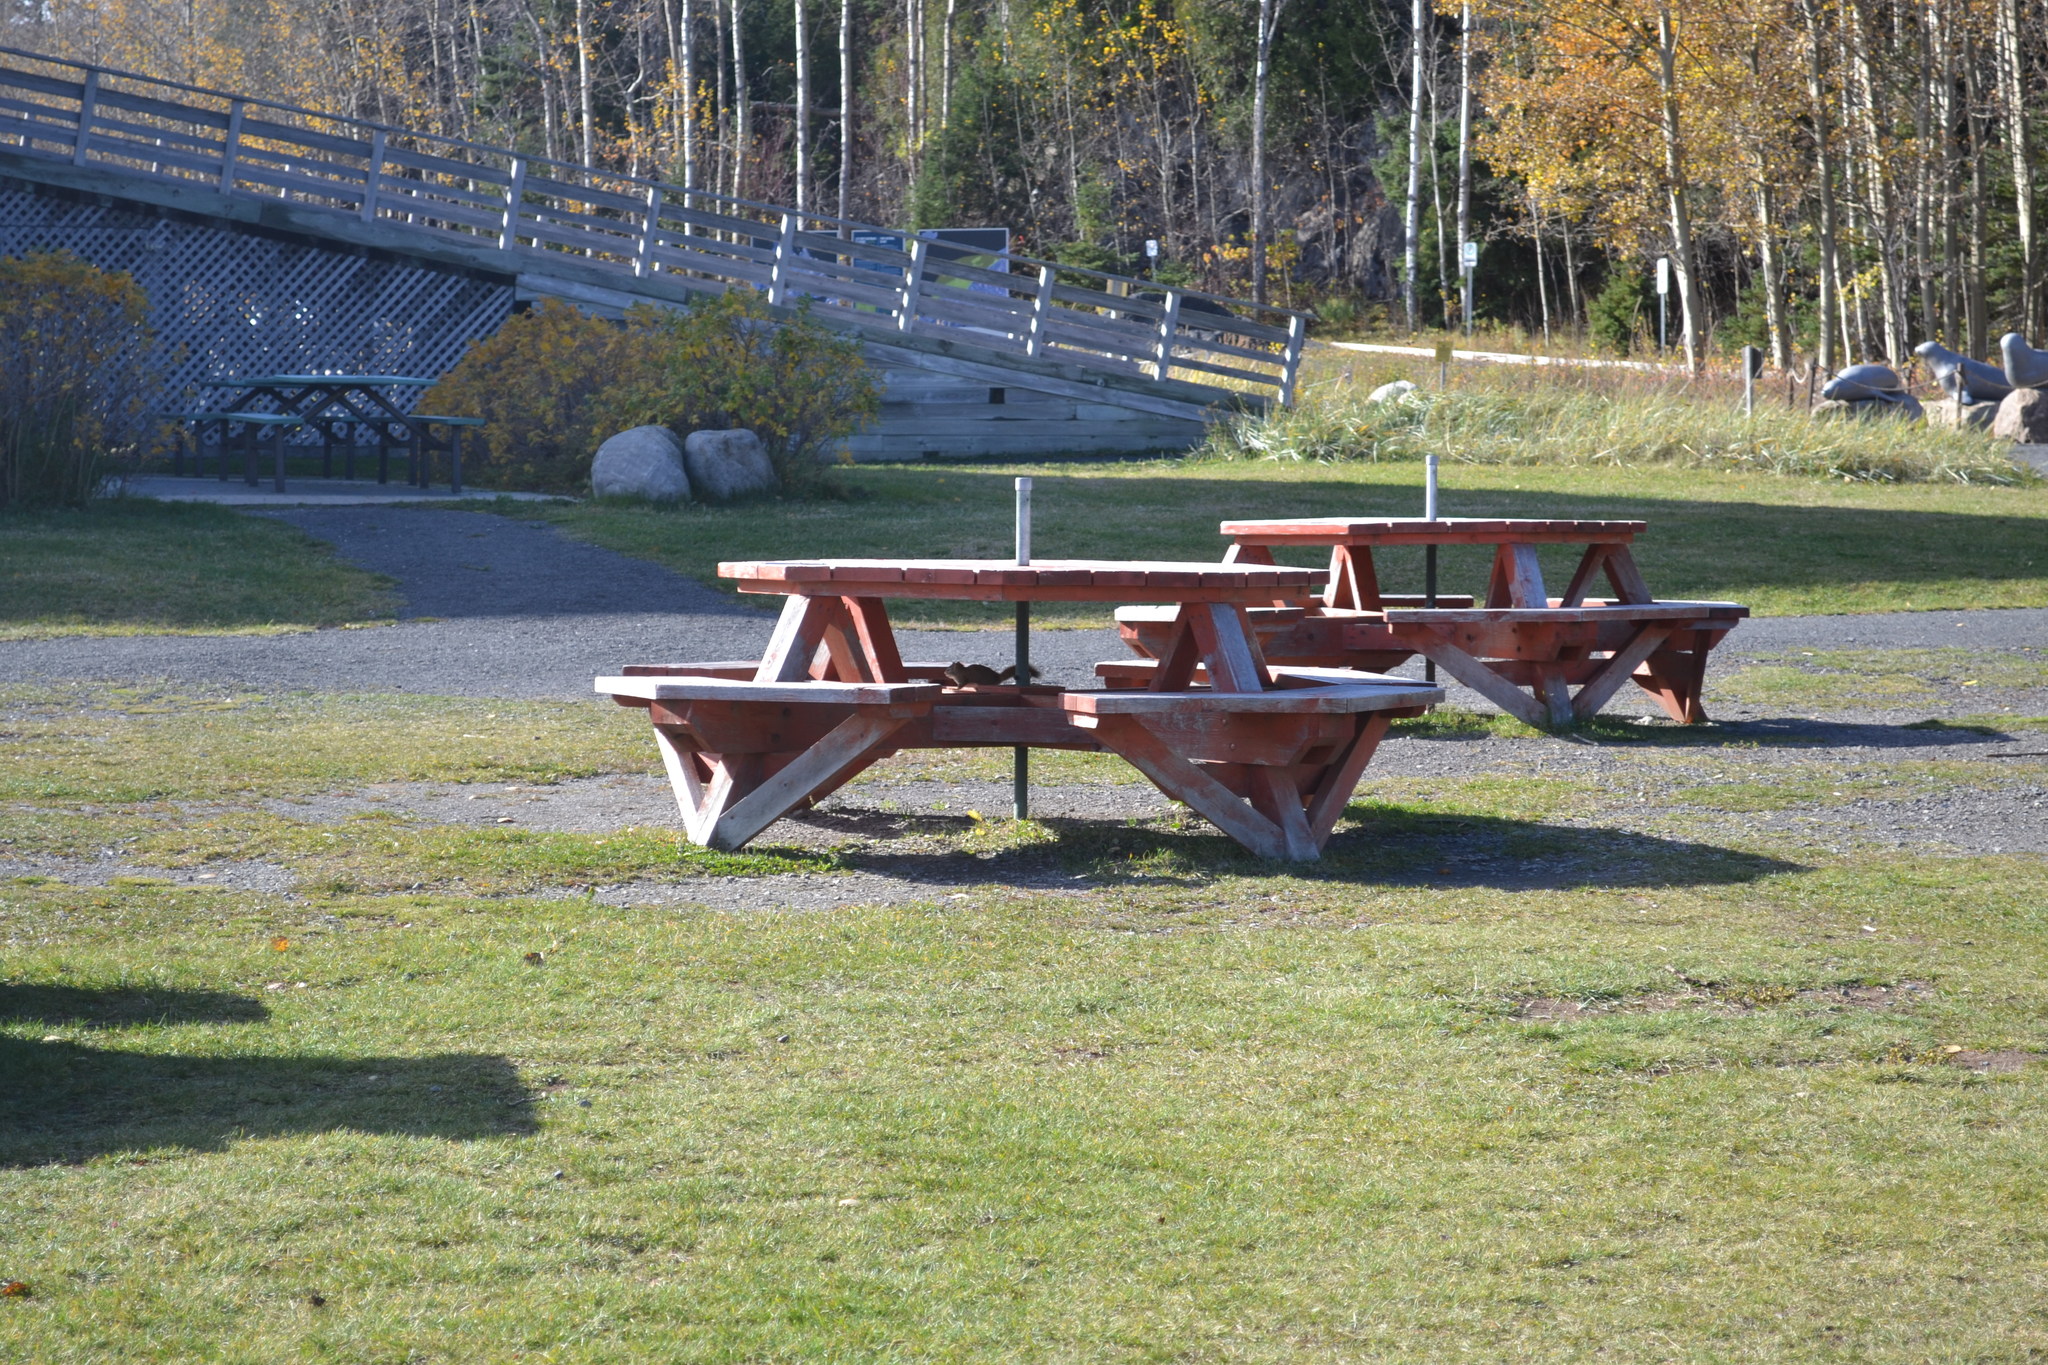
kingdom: Animalia
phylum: Chordata
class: Mammalia
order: Rodentia
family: Sciuridae
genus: Tamiasciurus
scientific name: Tamiasciurus hudsonicus
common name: Red squirrel
